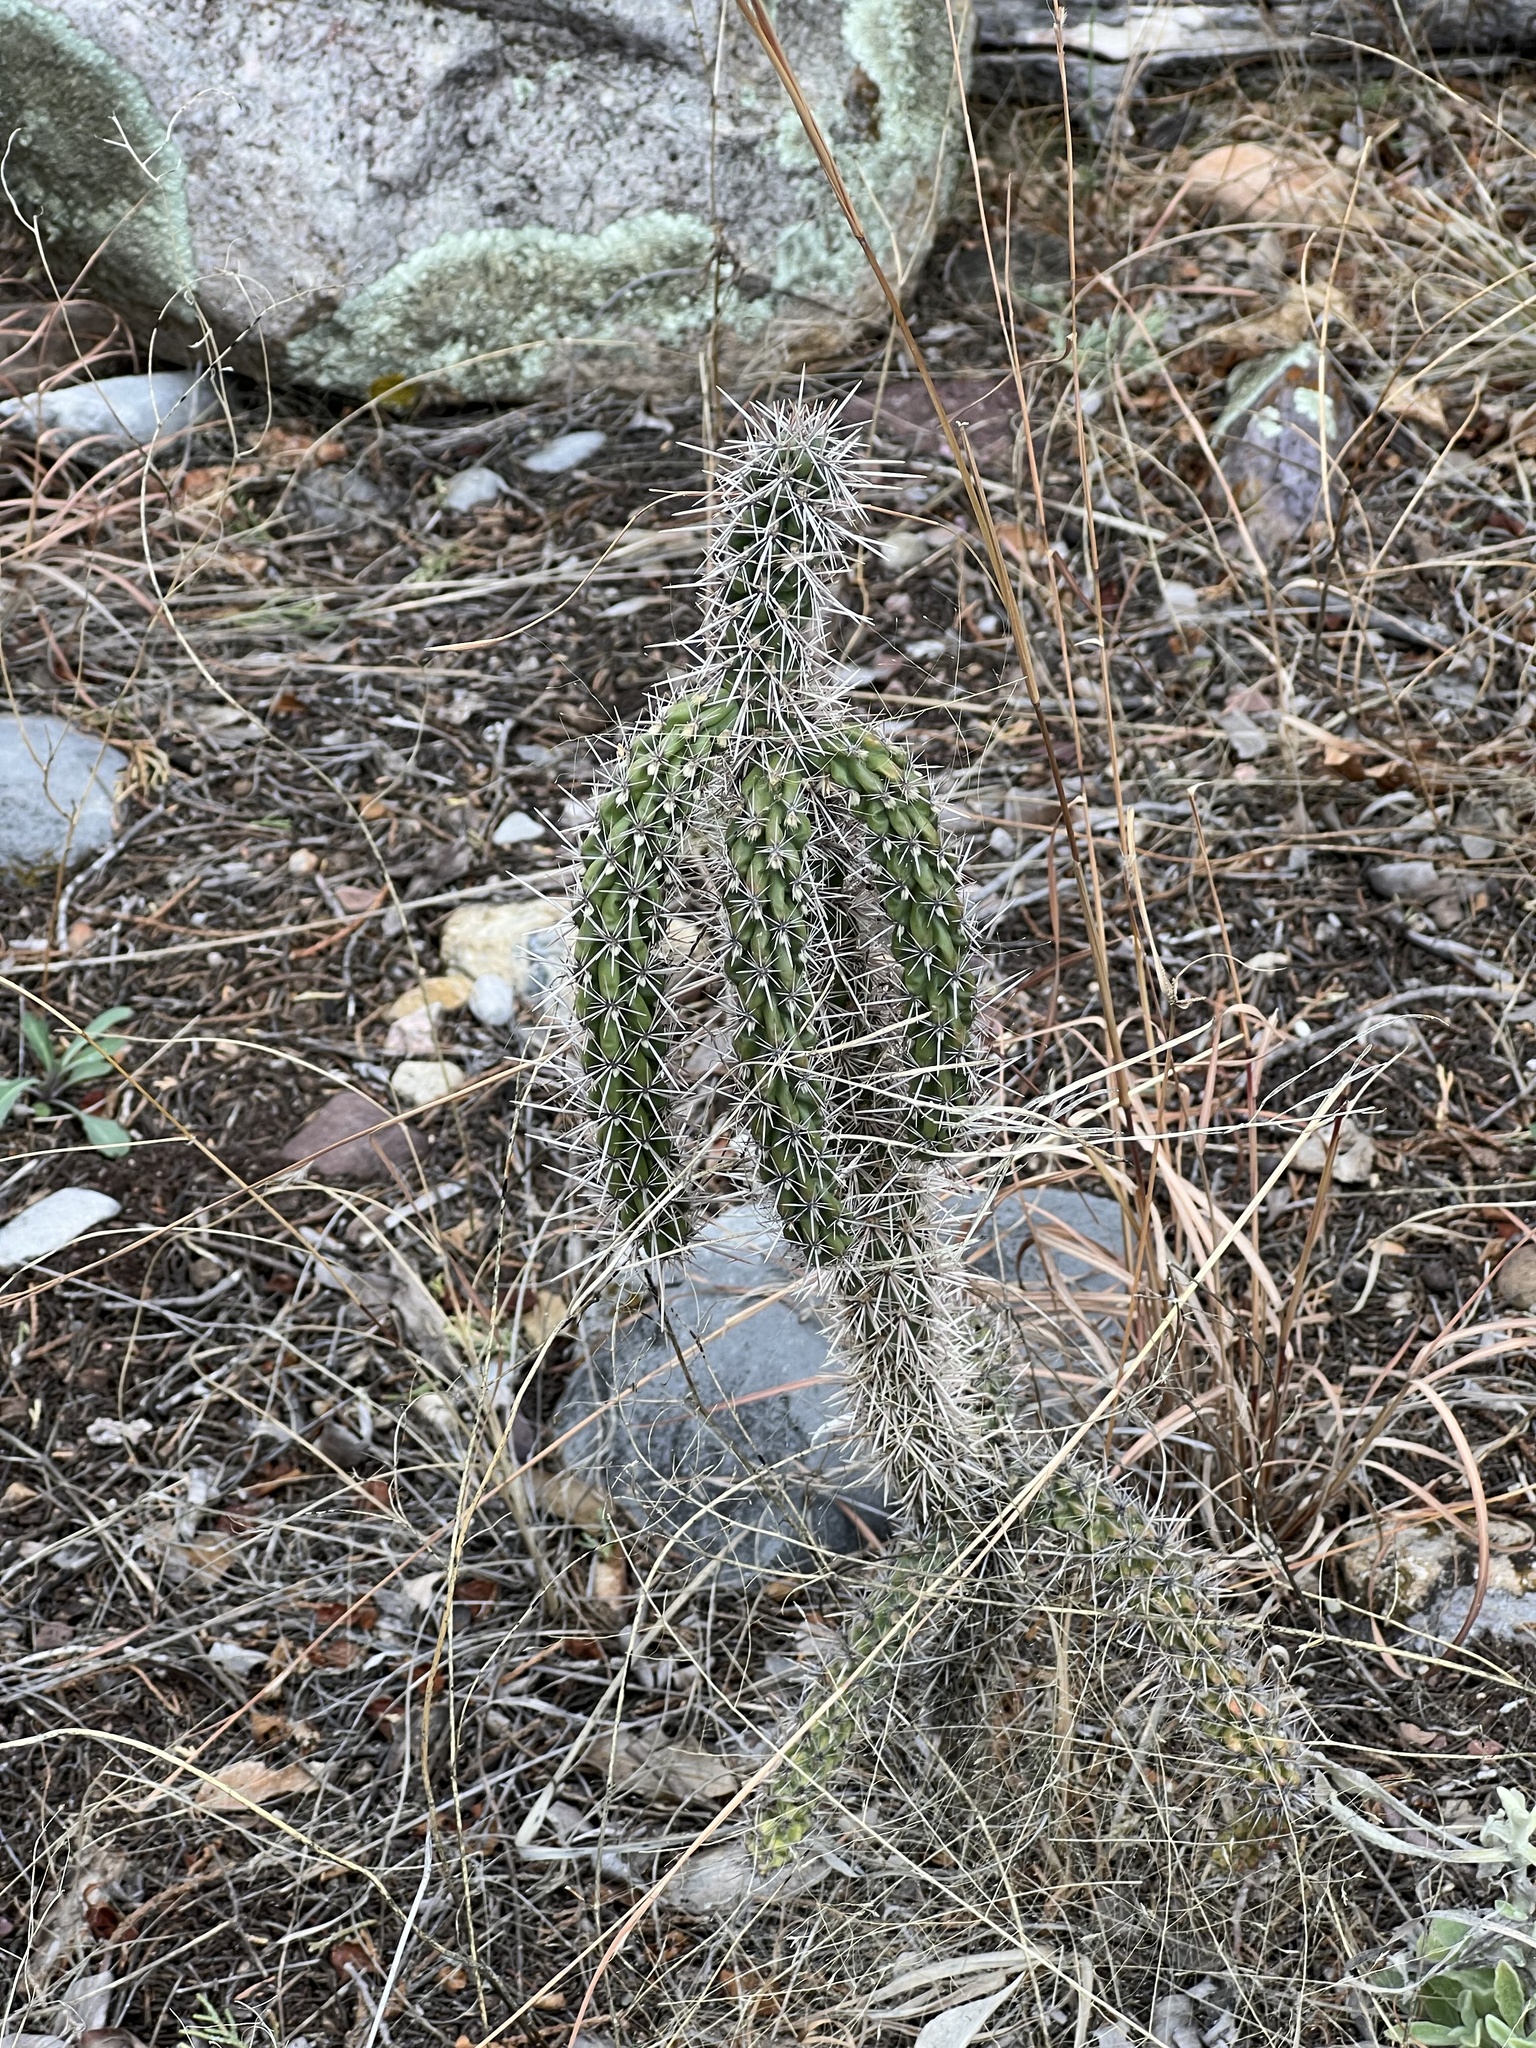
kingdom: Plantae
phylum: Tracheophyta
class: Magnoliopsida
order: Caryophyllales
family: Cactaceae
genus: Cylindropuntia
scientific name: Cylindropuntia imbricata
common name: Candelabrum cactus
